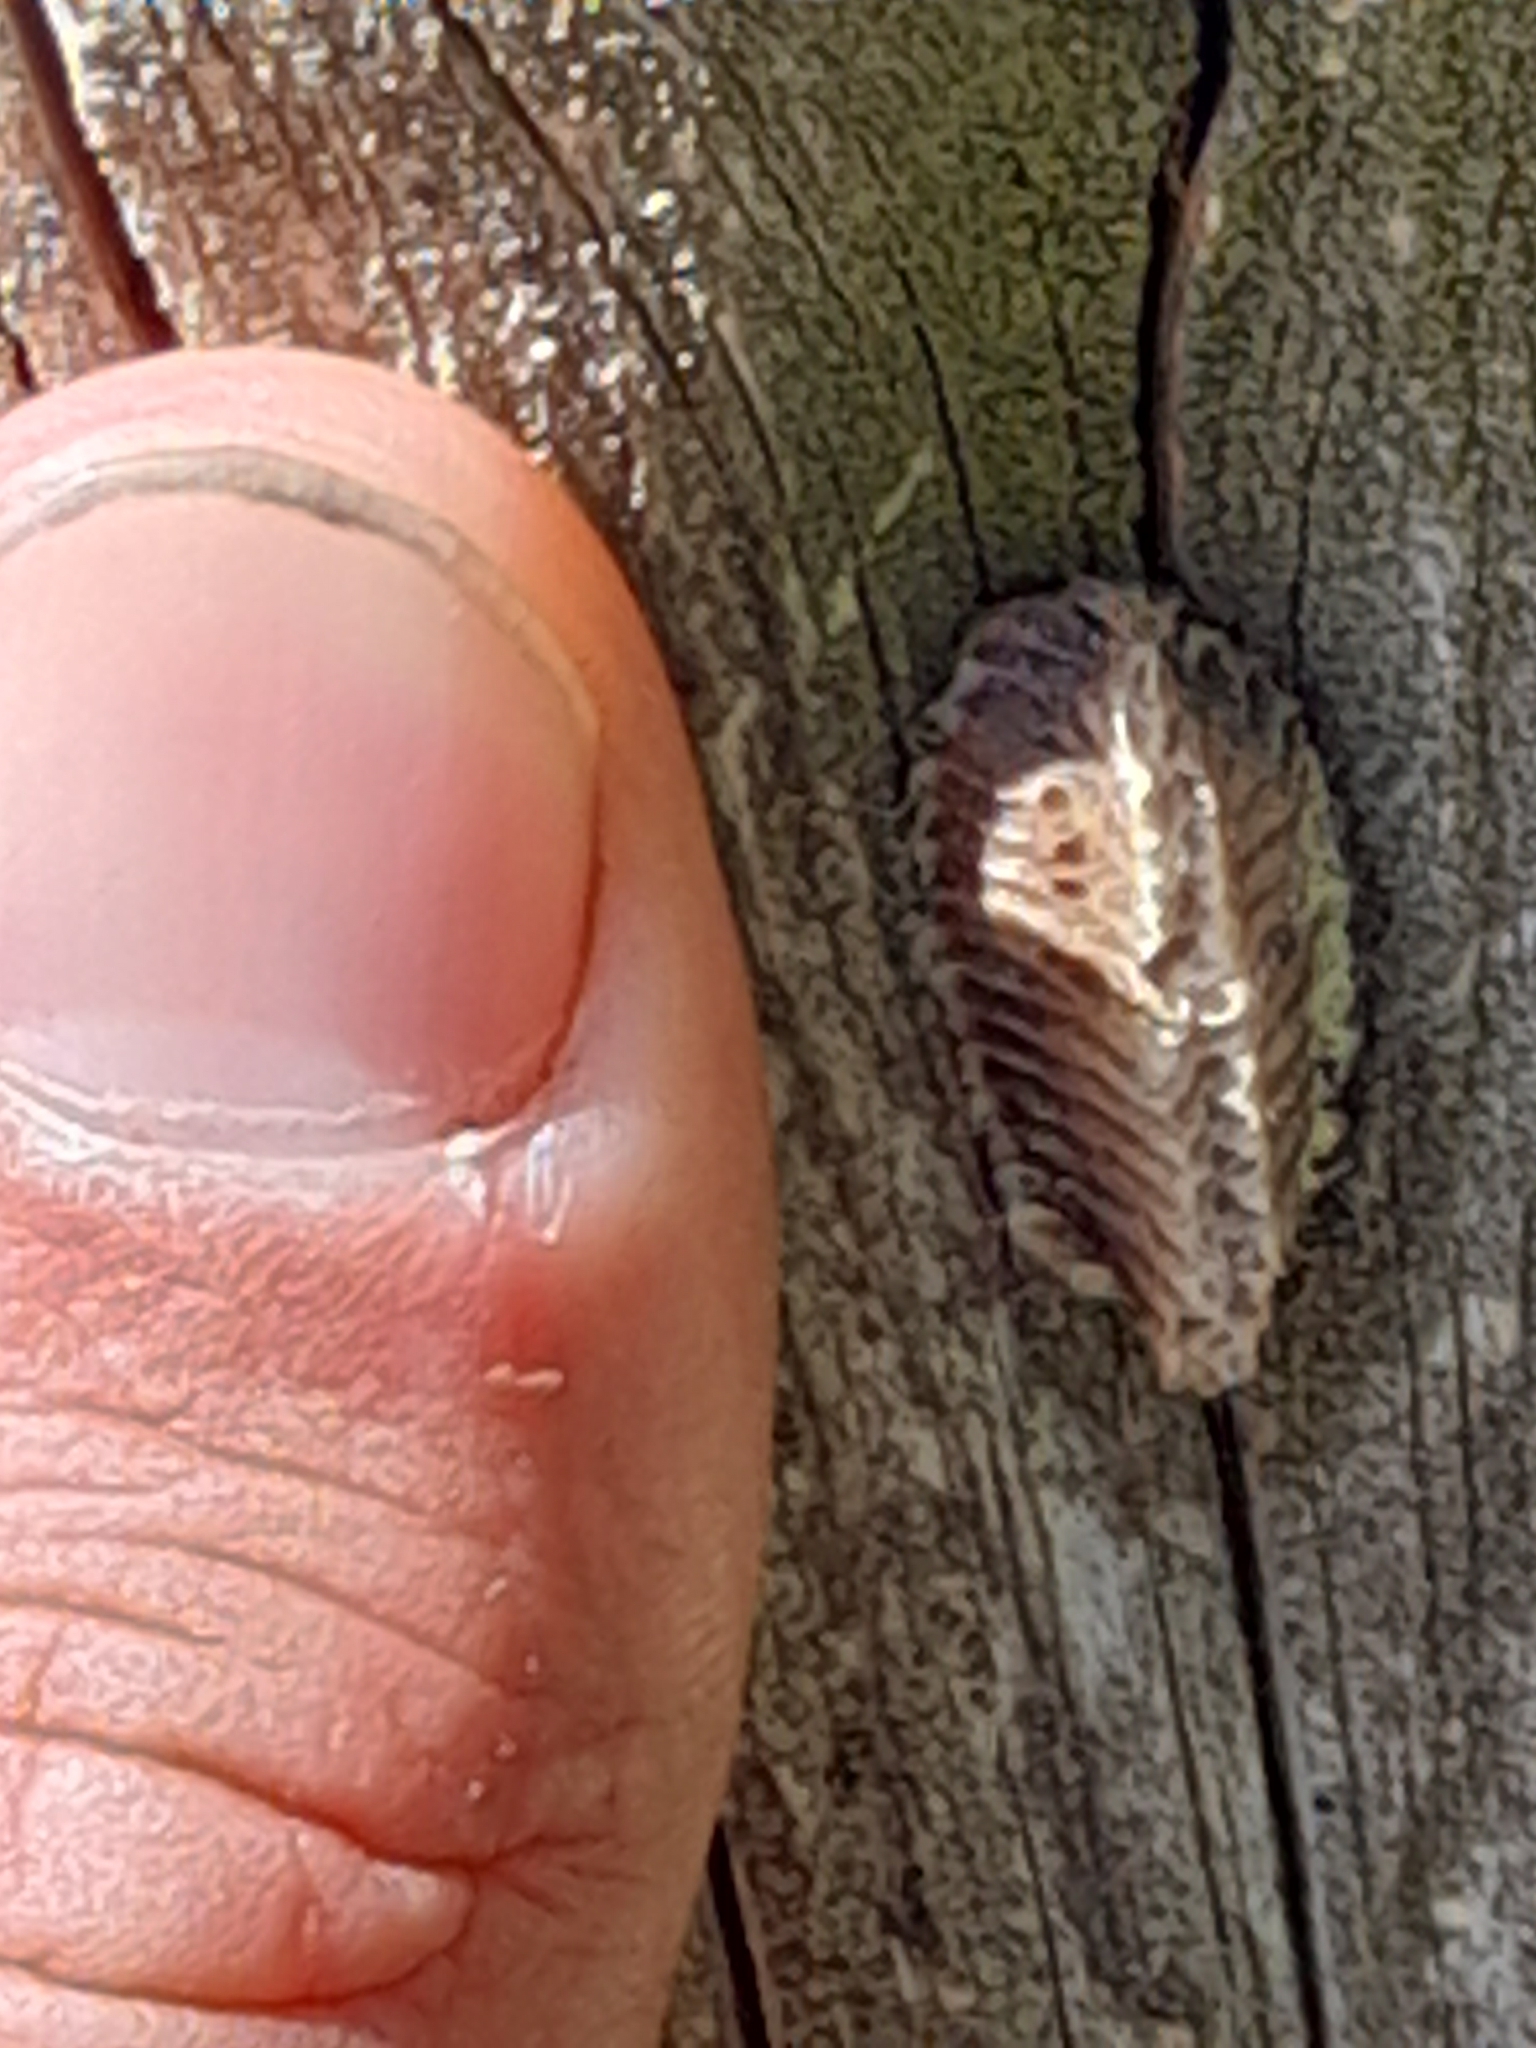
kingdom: Animalia
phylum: Arthropoda
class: Insecta
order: Mantodea
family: Eremiaphilidae
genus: Iris
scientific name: Iris oratoria
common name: Mediterranean mantis
